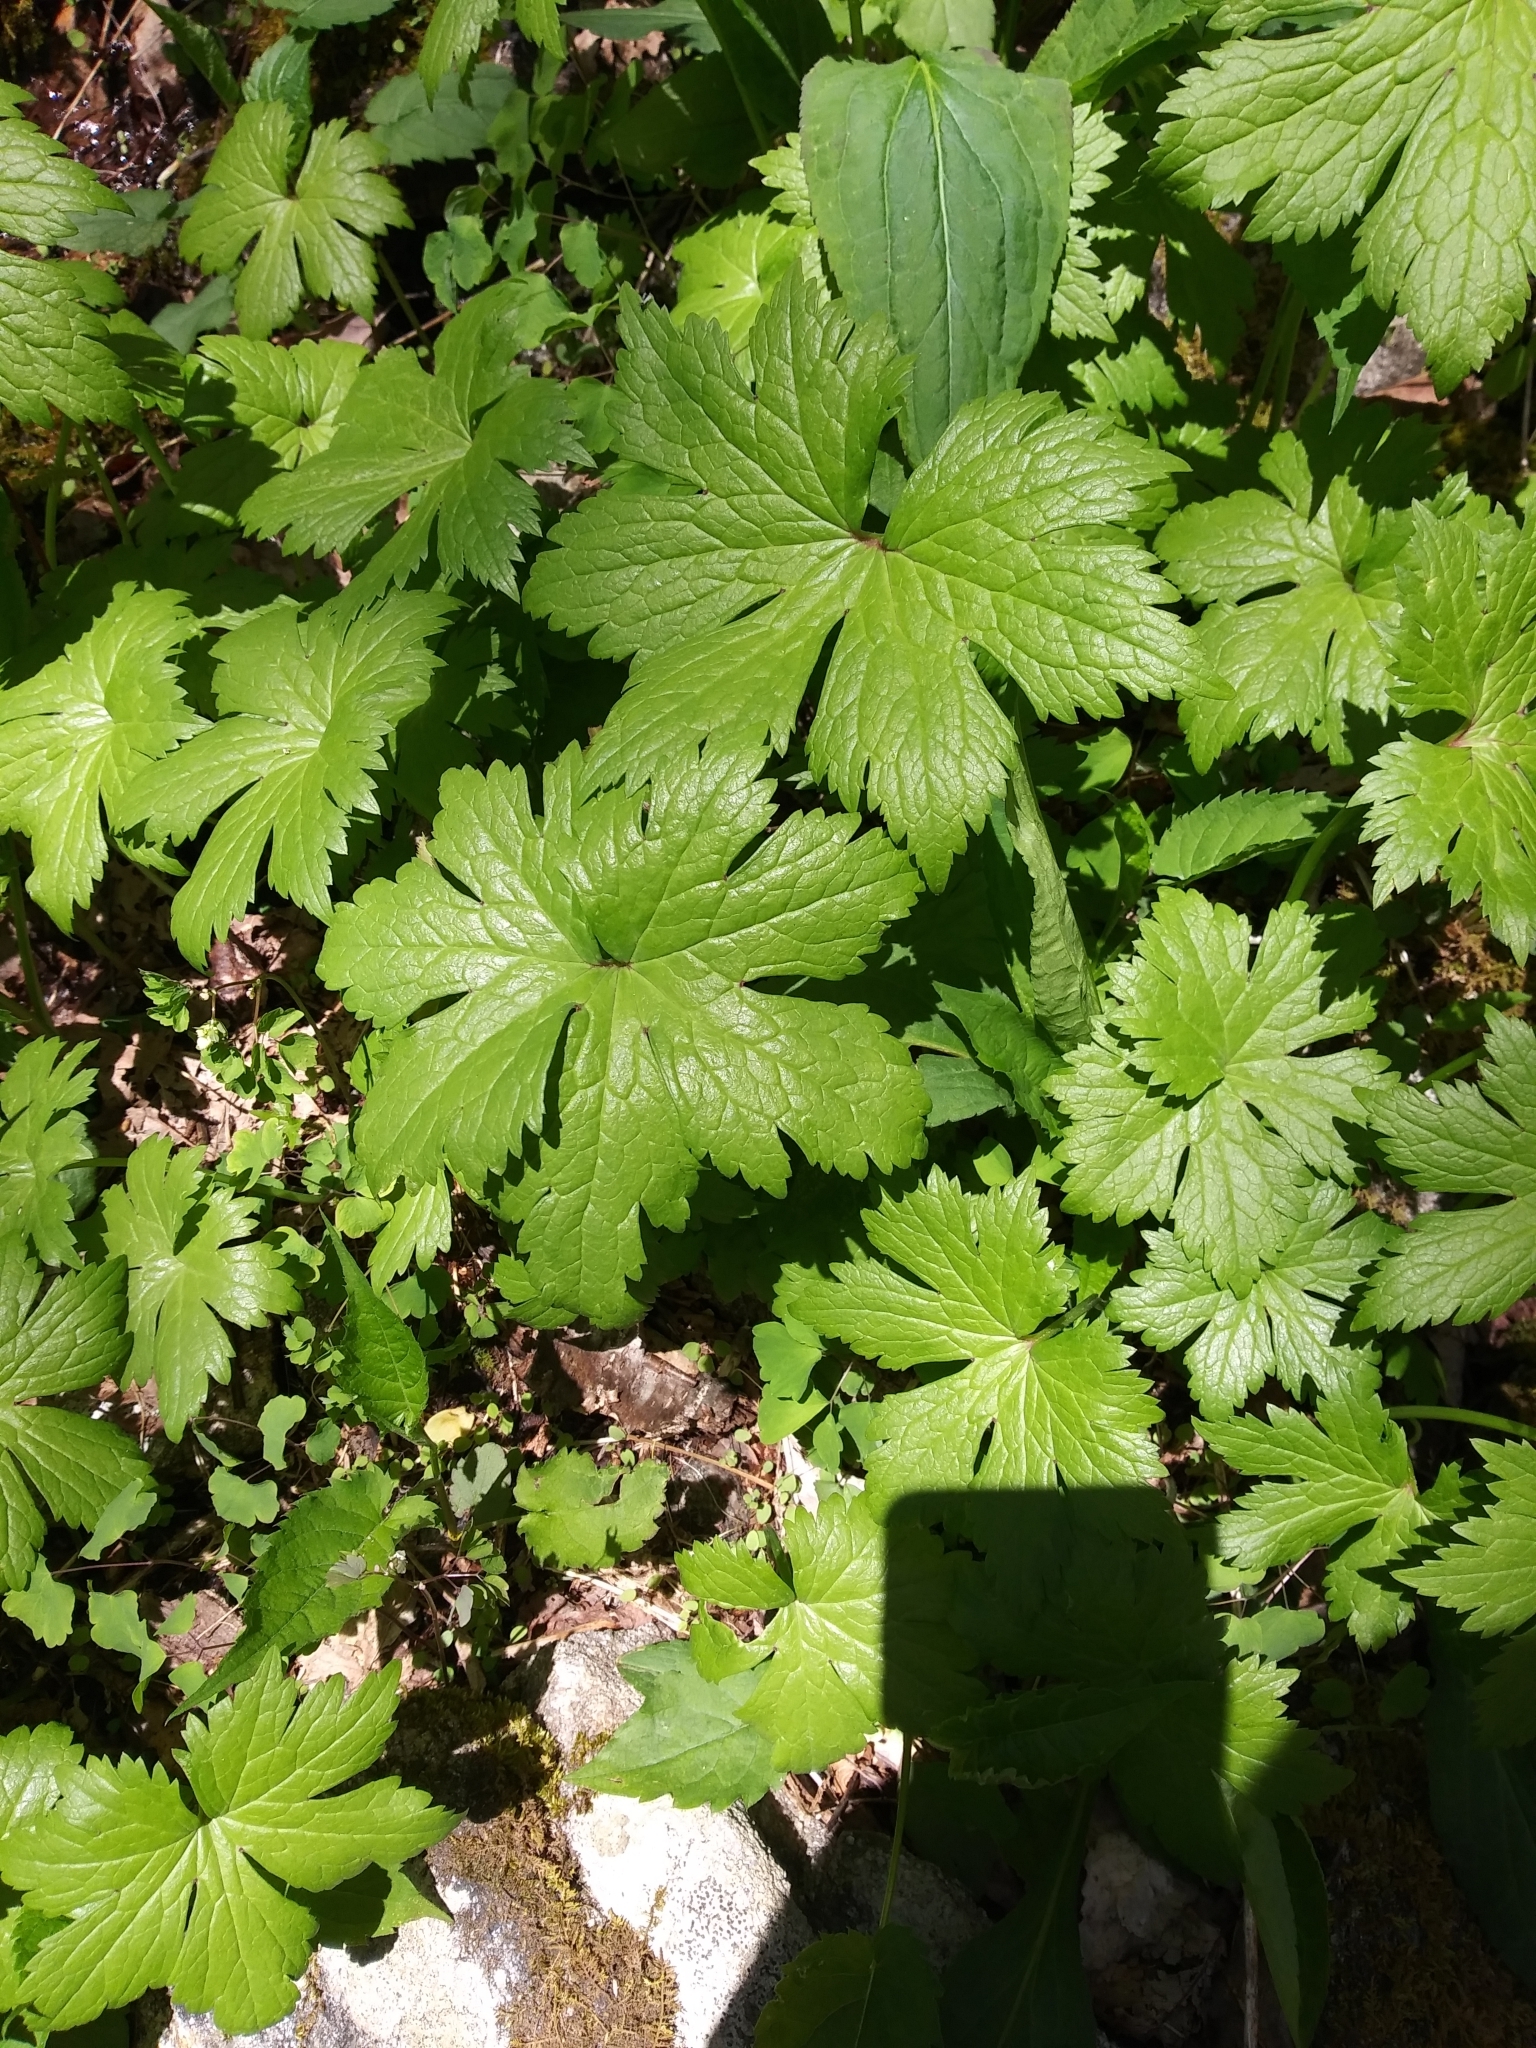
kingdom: Plantae
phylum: Tracheophyta
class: Magnoliopsida
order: Ranunculales
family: Ranunculaceae
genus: Trautvetteria
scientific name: Trautvetteria carolinensis
